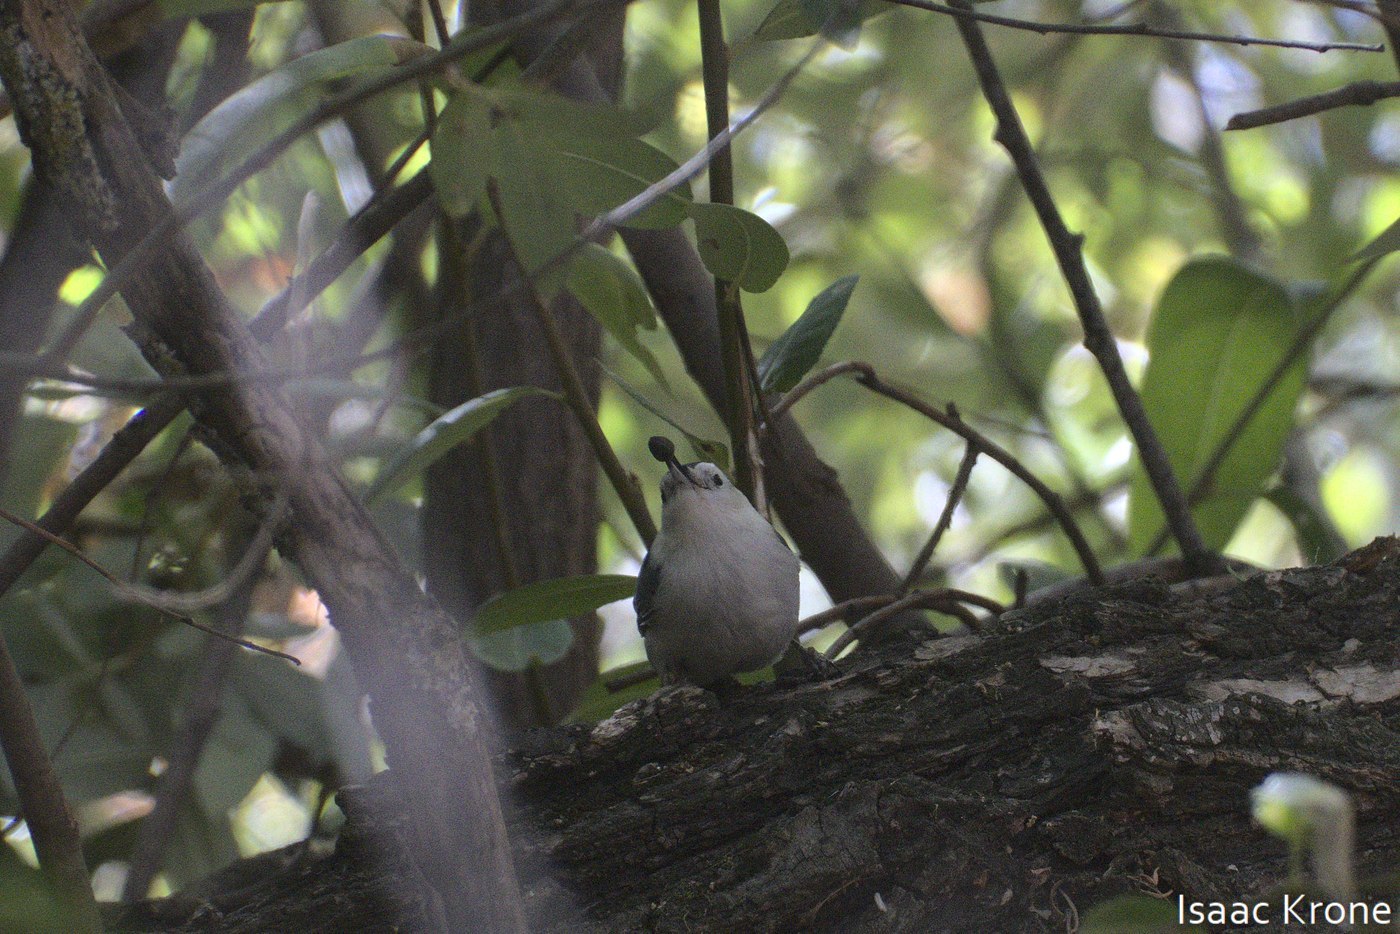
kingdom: Animalia
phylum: Chordata
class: Aves
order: Passeriformes
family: Sittidae
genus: Sitta
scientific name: Sitta carolinensis
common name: White-breasted nuthatch
